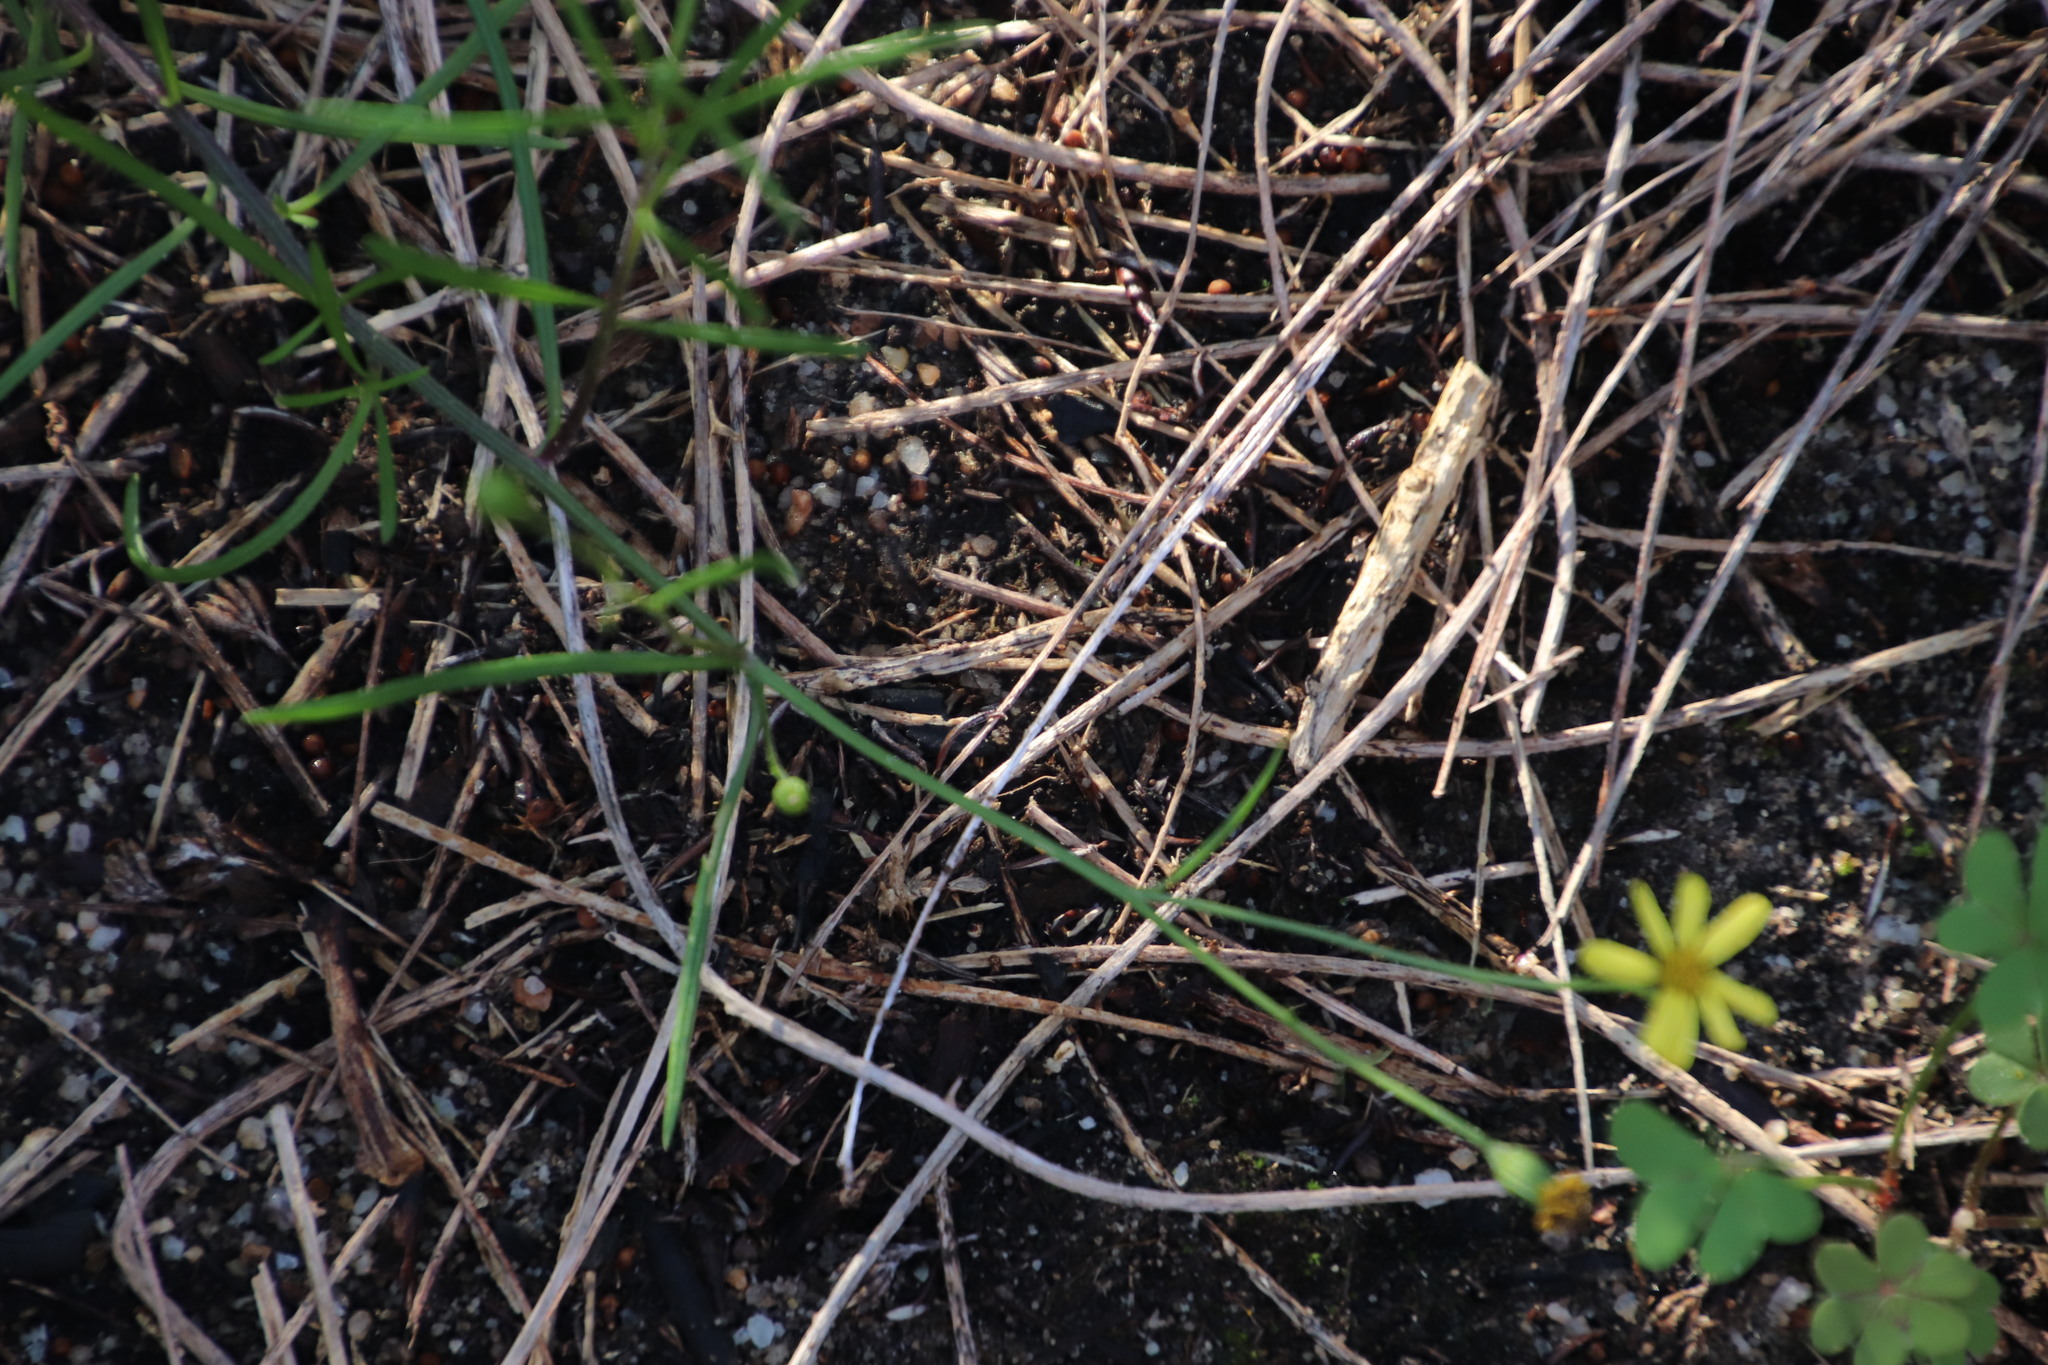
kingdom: Plantae
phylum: Tracheophyta
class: Magnoliopsida
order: Asterales
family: Asteraceae
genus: Senecio
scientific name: Senecio burchellii
